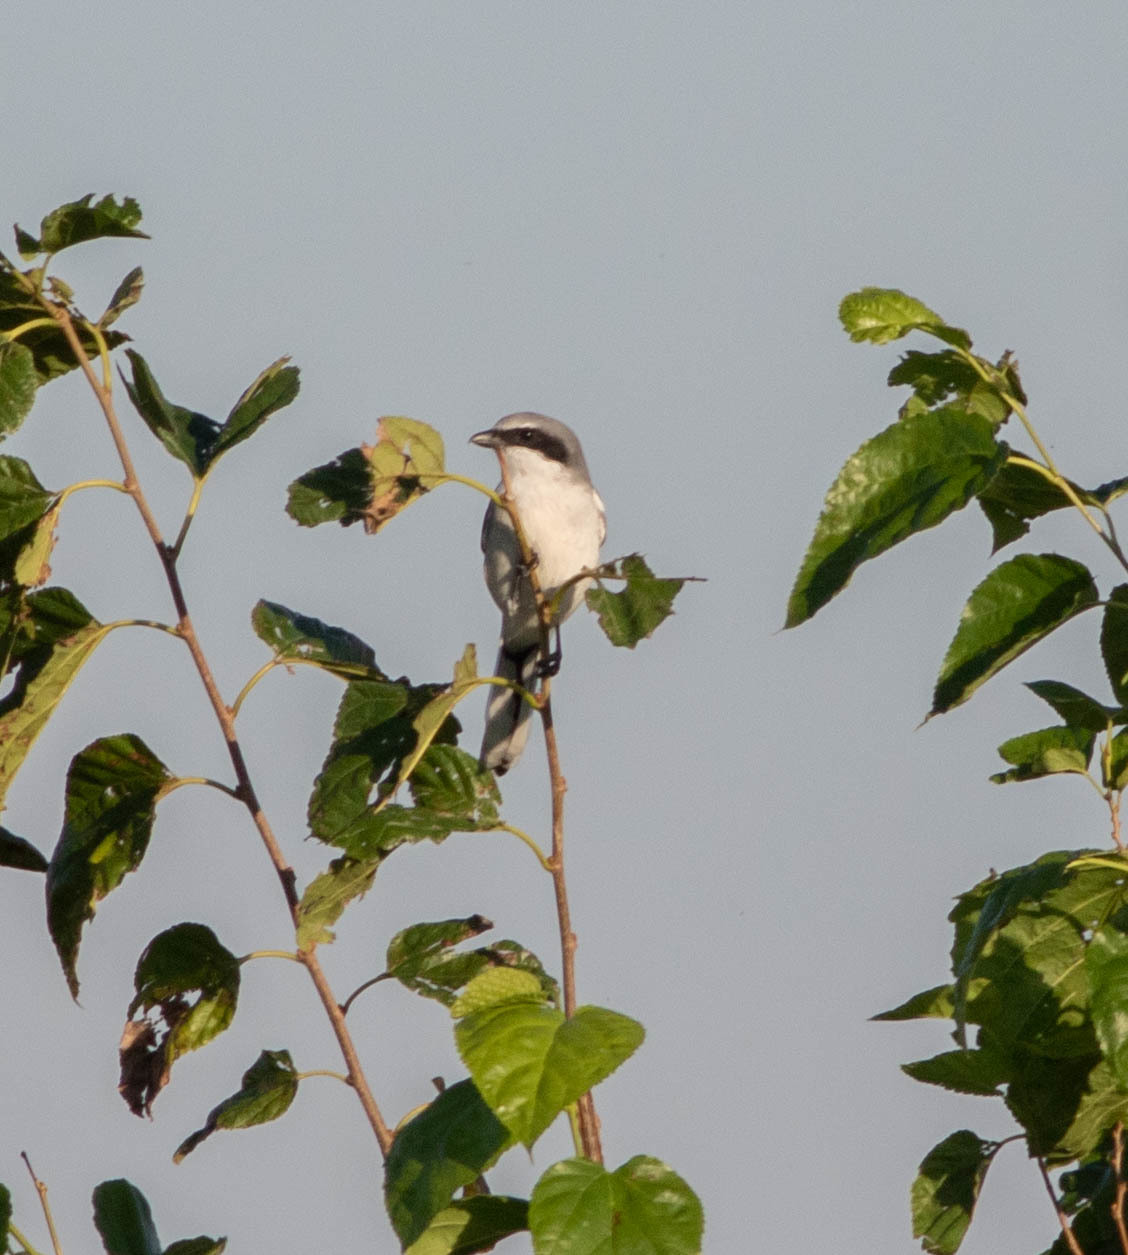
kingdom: Animalia
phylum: Chordata
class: Aves
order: Passeriformes
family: Laniidae
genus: Lanius
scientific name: Lanius ludovicianus
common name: Loggerhead shrike
